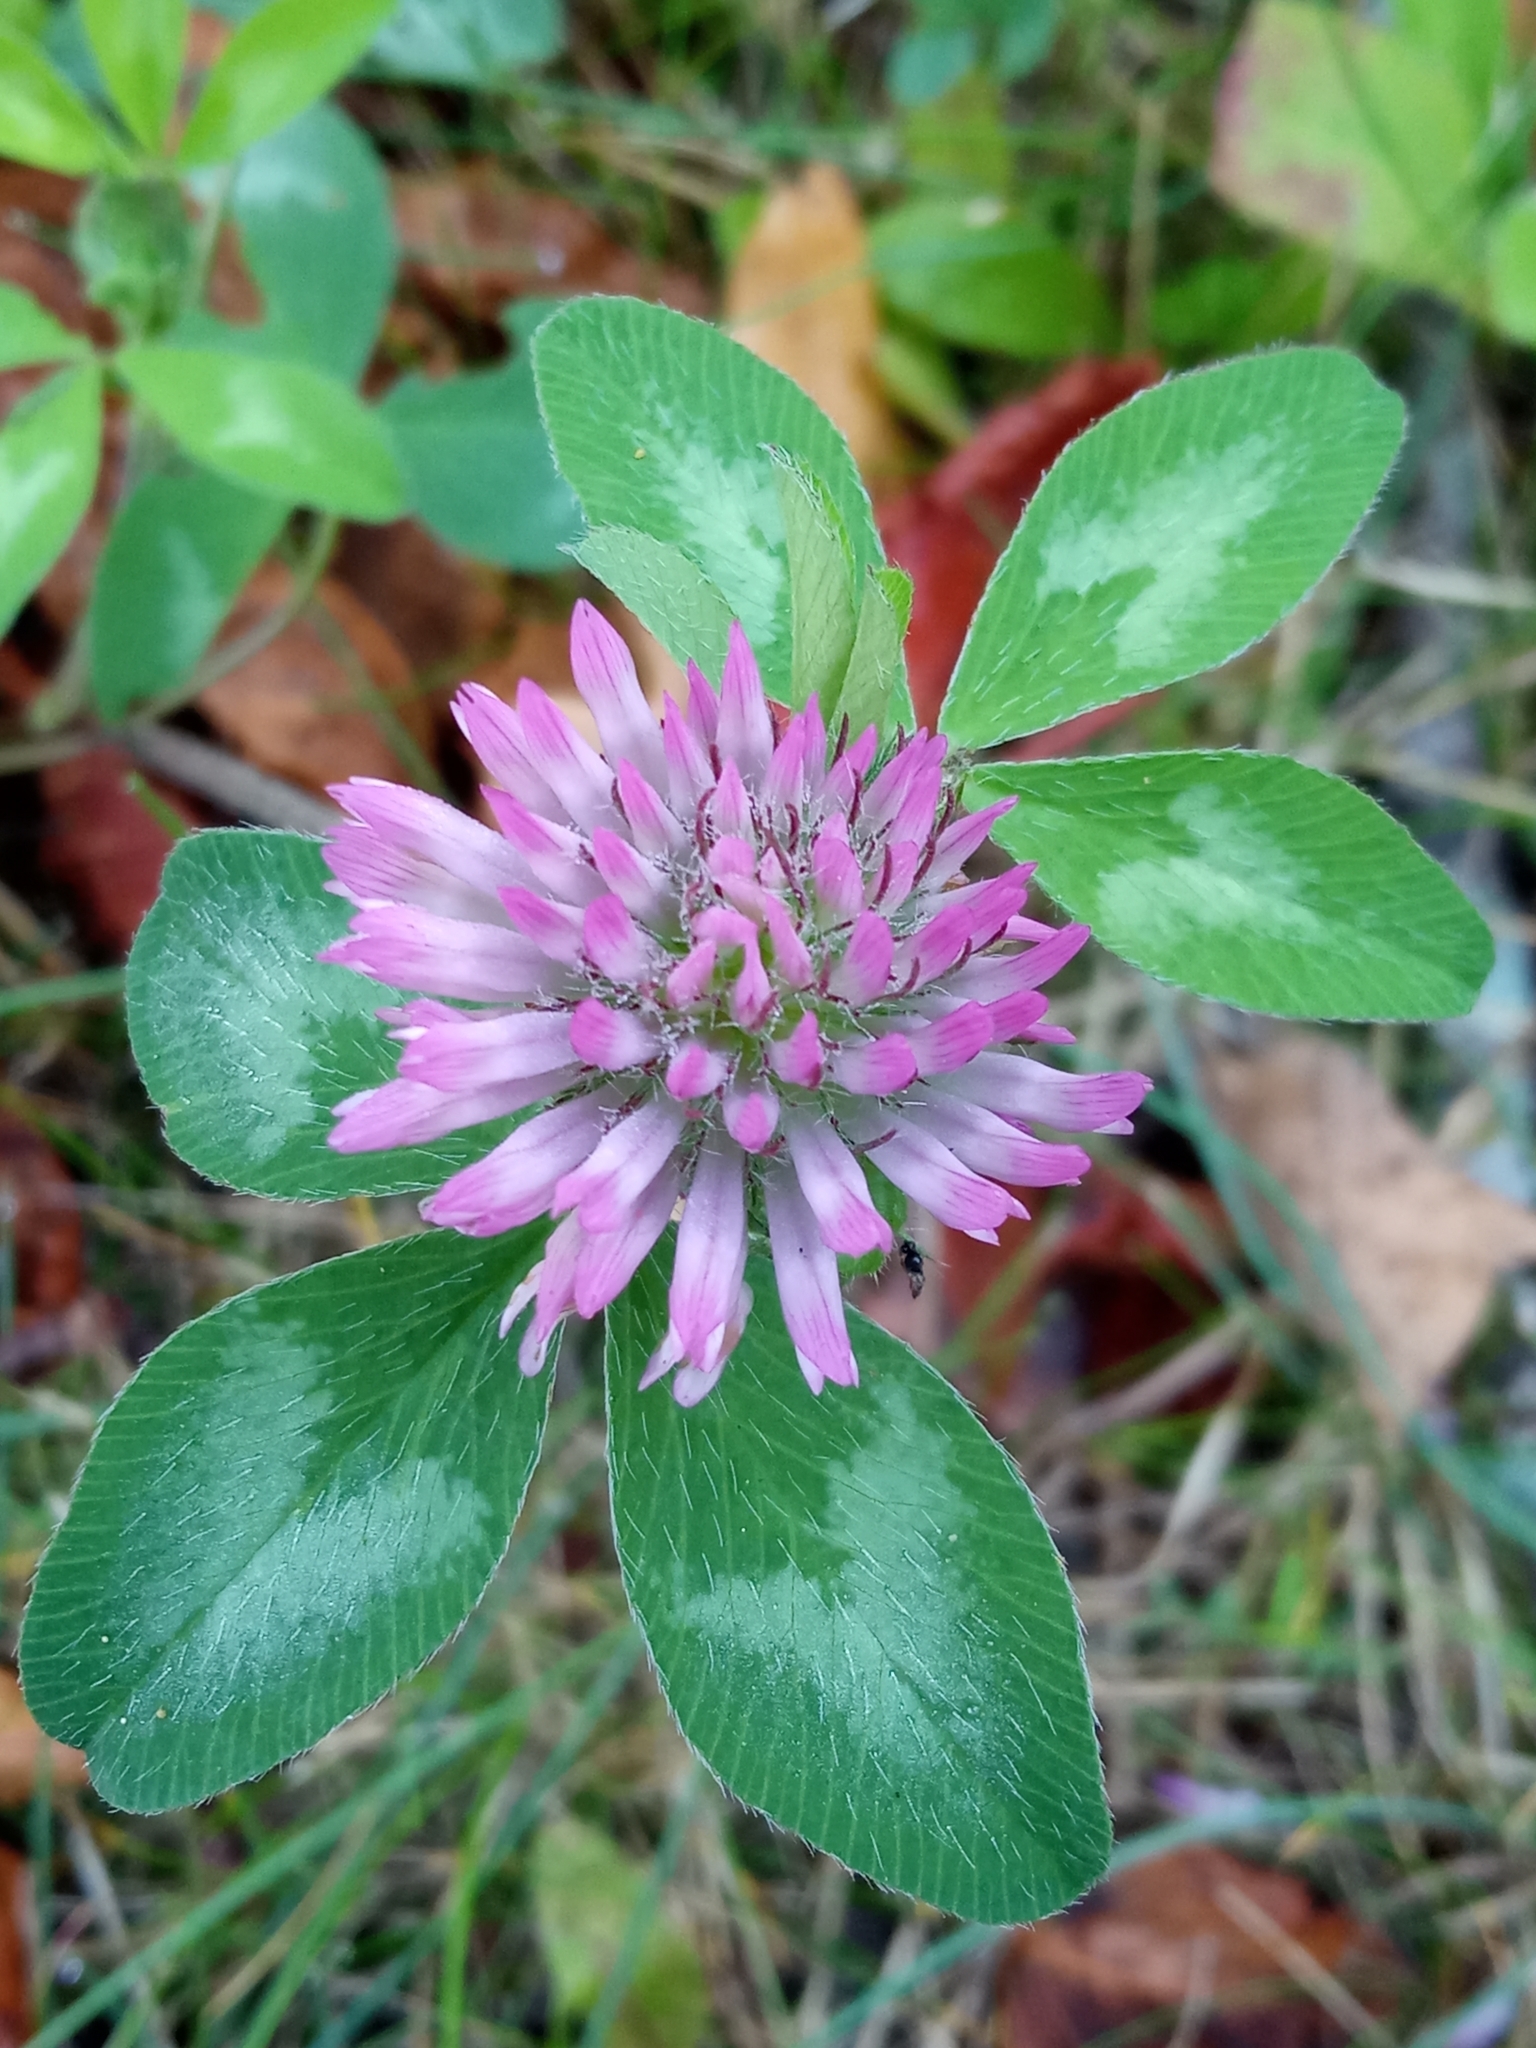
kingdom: Plantae
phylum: Tracheophyta
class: Magnoliopsida
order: Fabales
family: Fabaceae
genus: Trifolium
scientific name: Trifolium pratense
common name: Red clover
